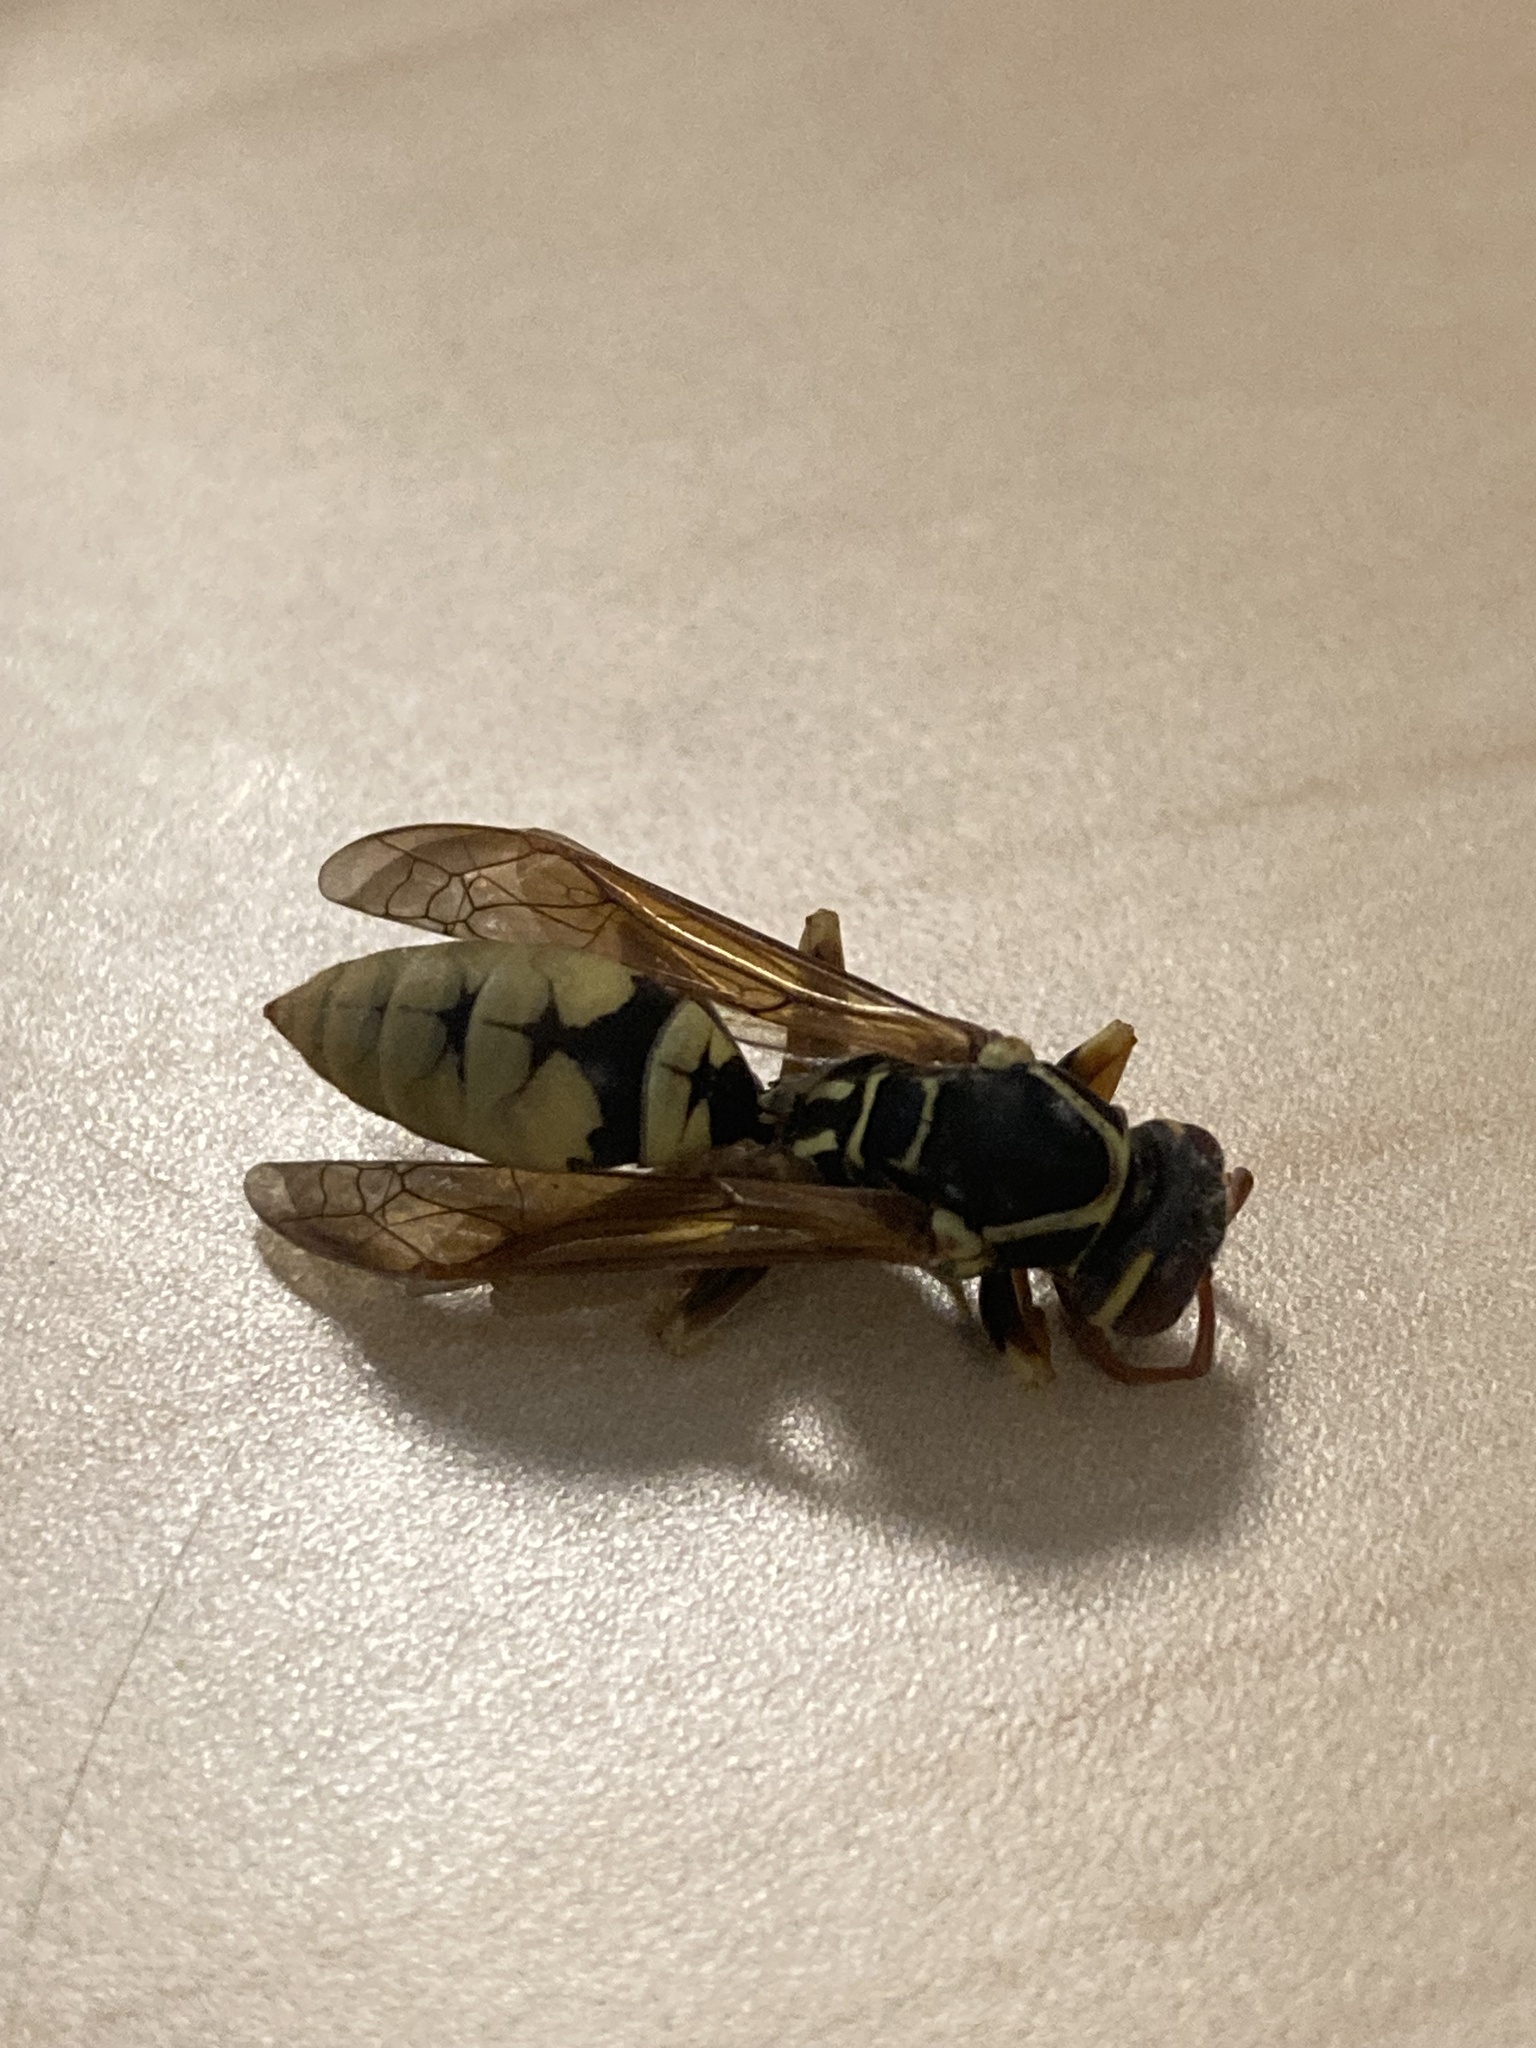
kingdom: Animalia
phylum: Arthropoda
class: Insecta
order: Hymenoptera
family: Eumenidae
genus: Polistes
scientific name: Polistes aurifer
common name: Paper wasp
